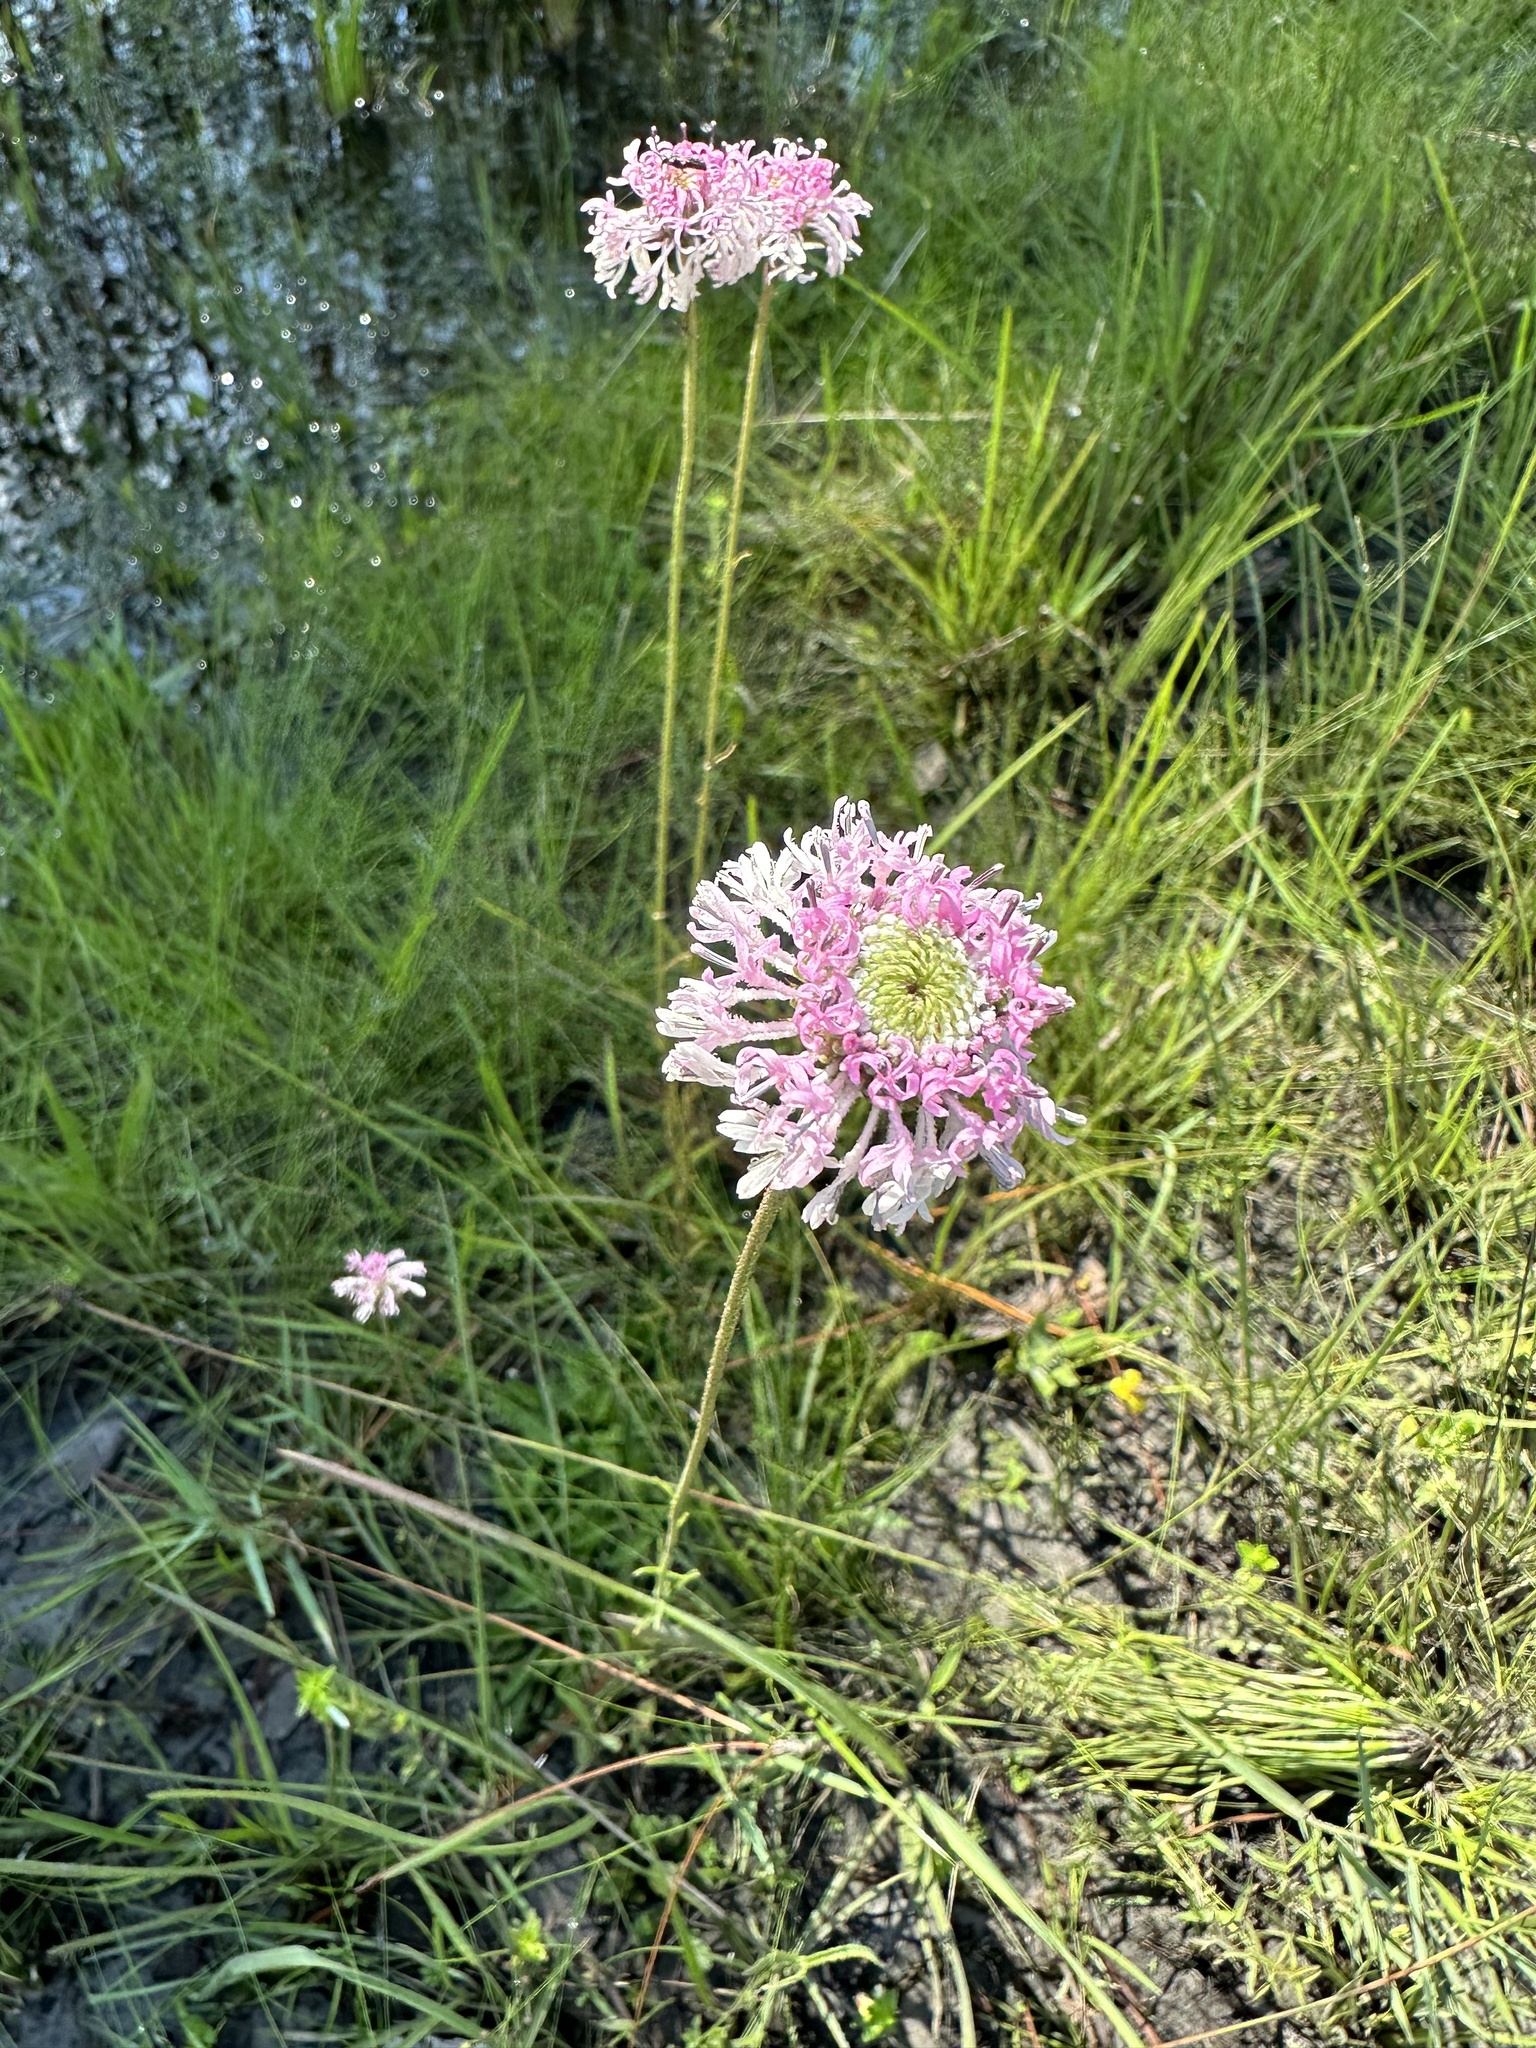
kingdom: Plantae
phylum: Tracheophyta
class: Magnoliopsida
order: Asterales
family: Asteraceae
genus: Marshallia
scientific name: Marshallia graminifolia
